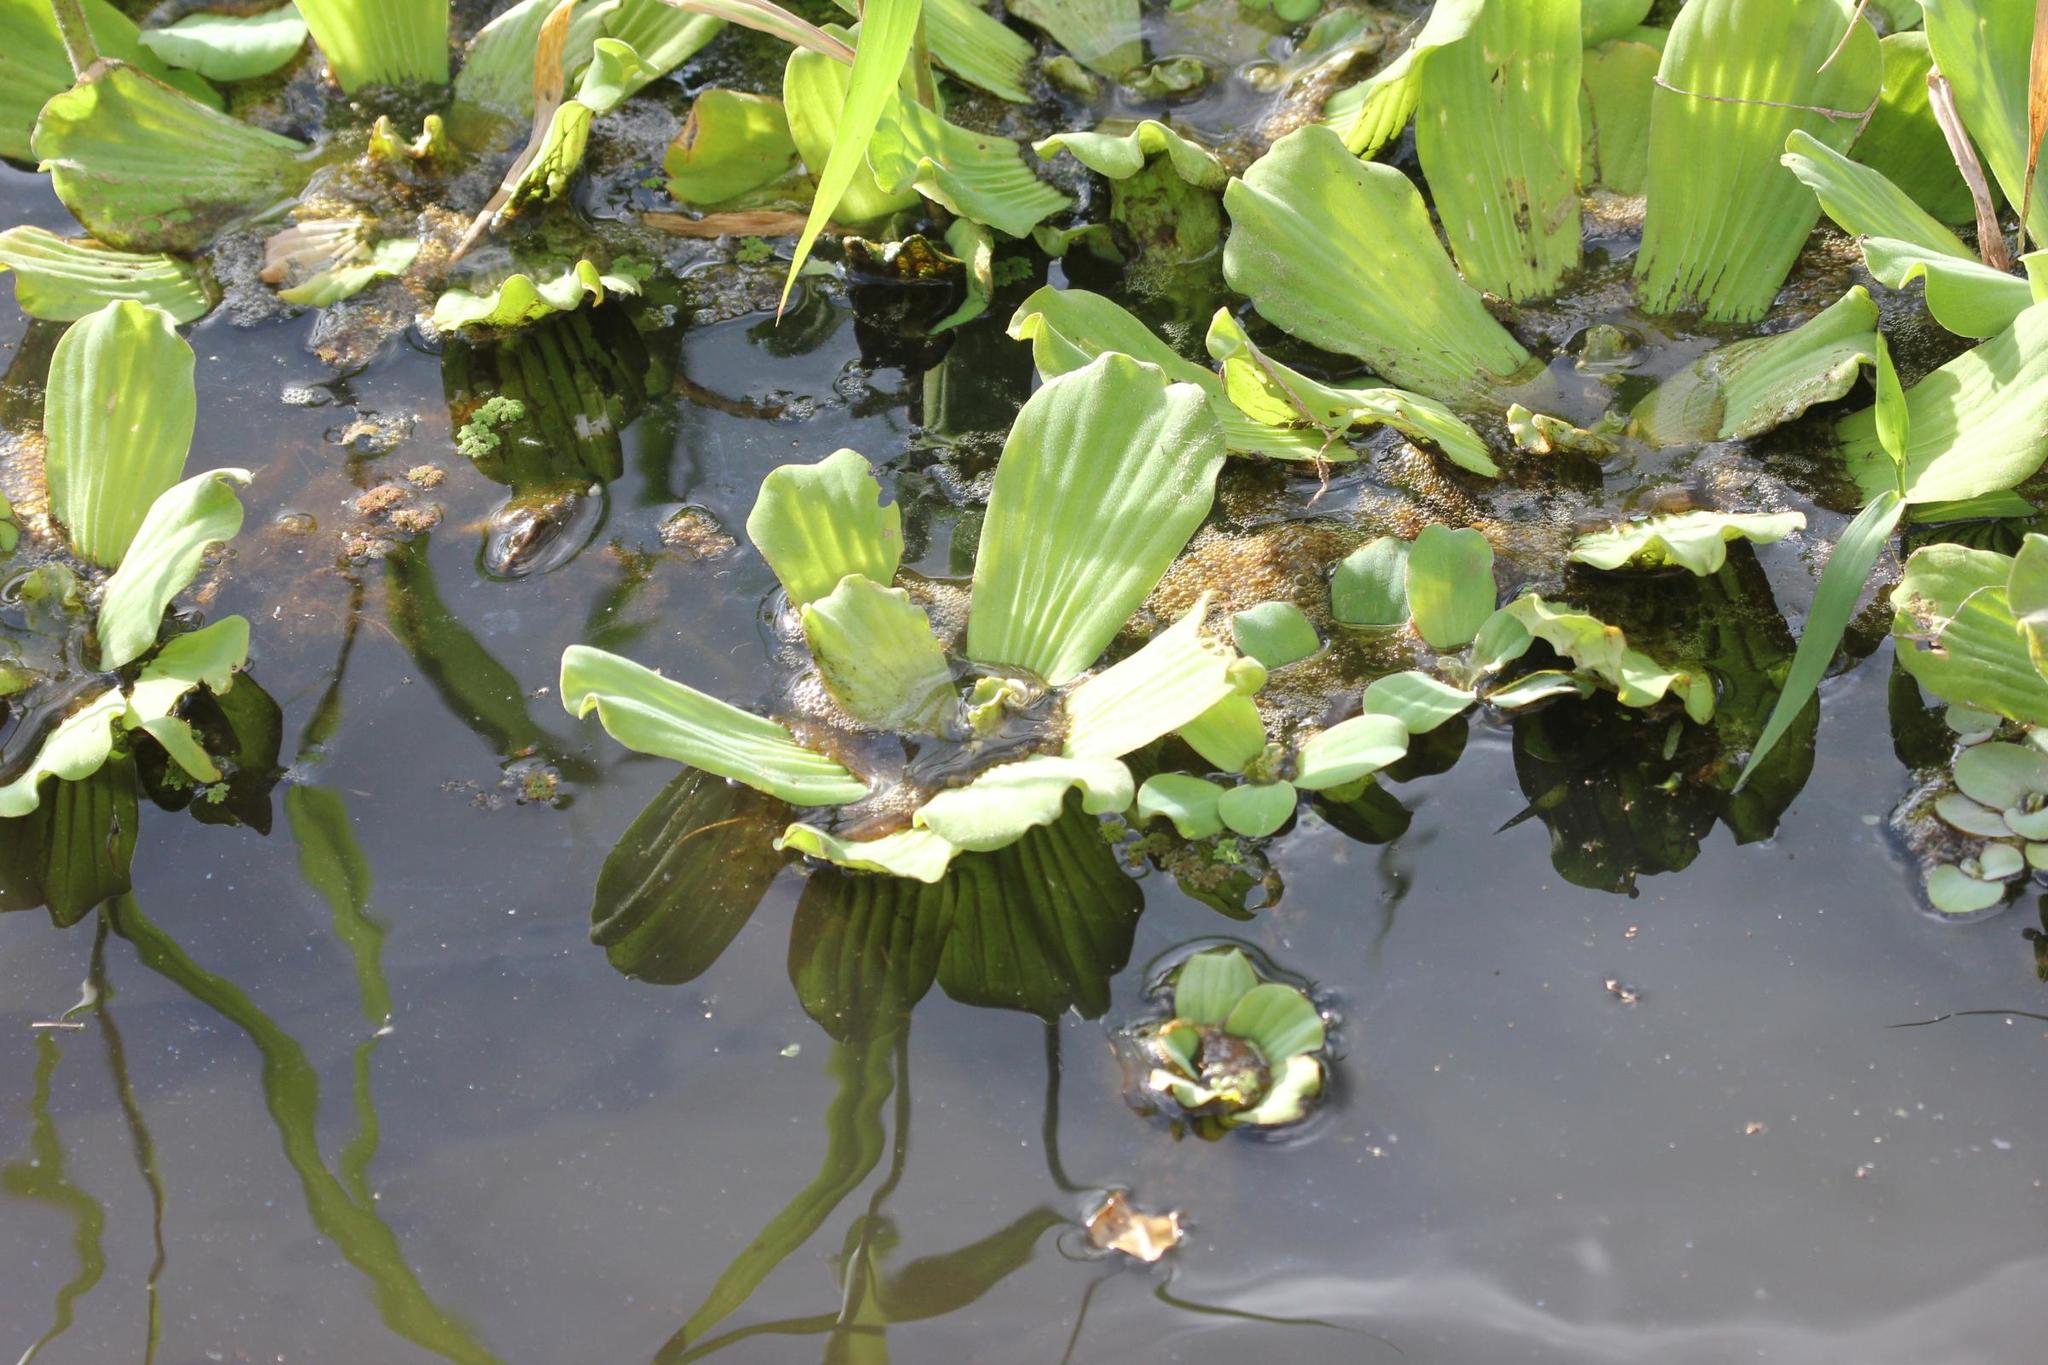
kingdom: Plantae
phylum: Tracheophyta
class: Liliopsida
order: Alismatales
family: Araceae
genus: Pistia
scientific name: Pistia stratiotes
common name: Water lettuce
